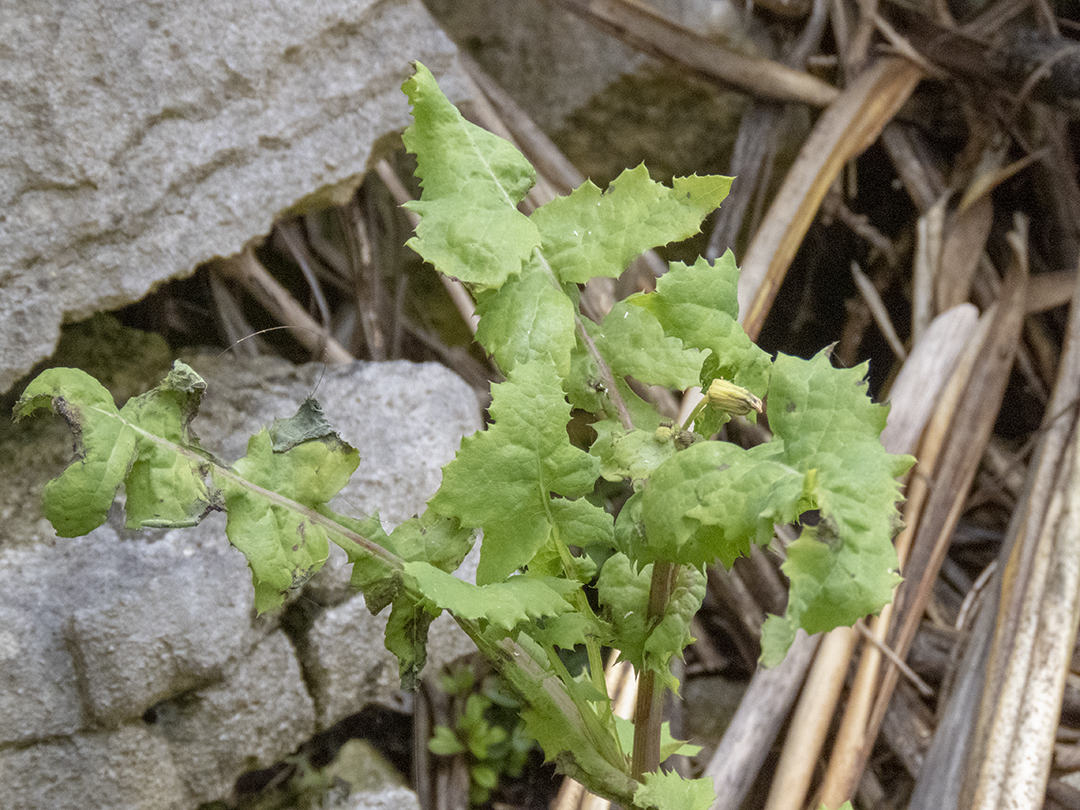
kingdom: Plantae
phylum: Tracheophyta
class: Magnoliopsida
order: Asterales
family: Asteraceae
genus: Sonchus
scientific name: Sonchus oleraceus
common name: Common sowthistle
